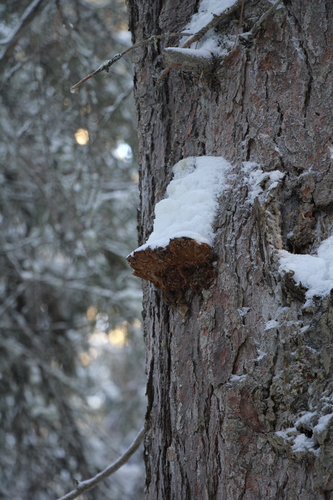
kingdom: Fungi
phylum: Basidiomycota
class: Agaricomycetes
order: Hymenochaetales
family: Hymenochaetaceae
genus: Porodaedalea
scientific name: Porodaedalea pini
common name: Pine bracket
